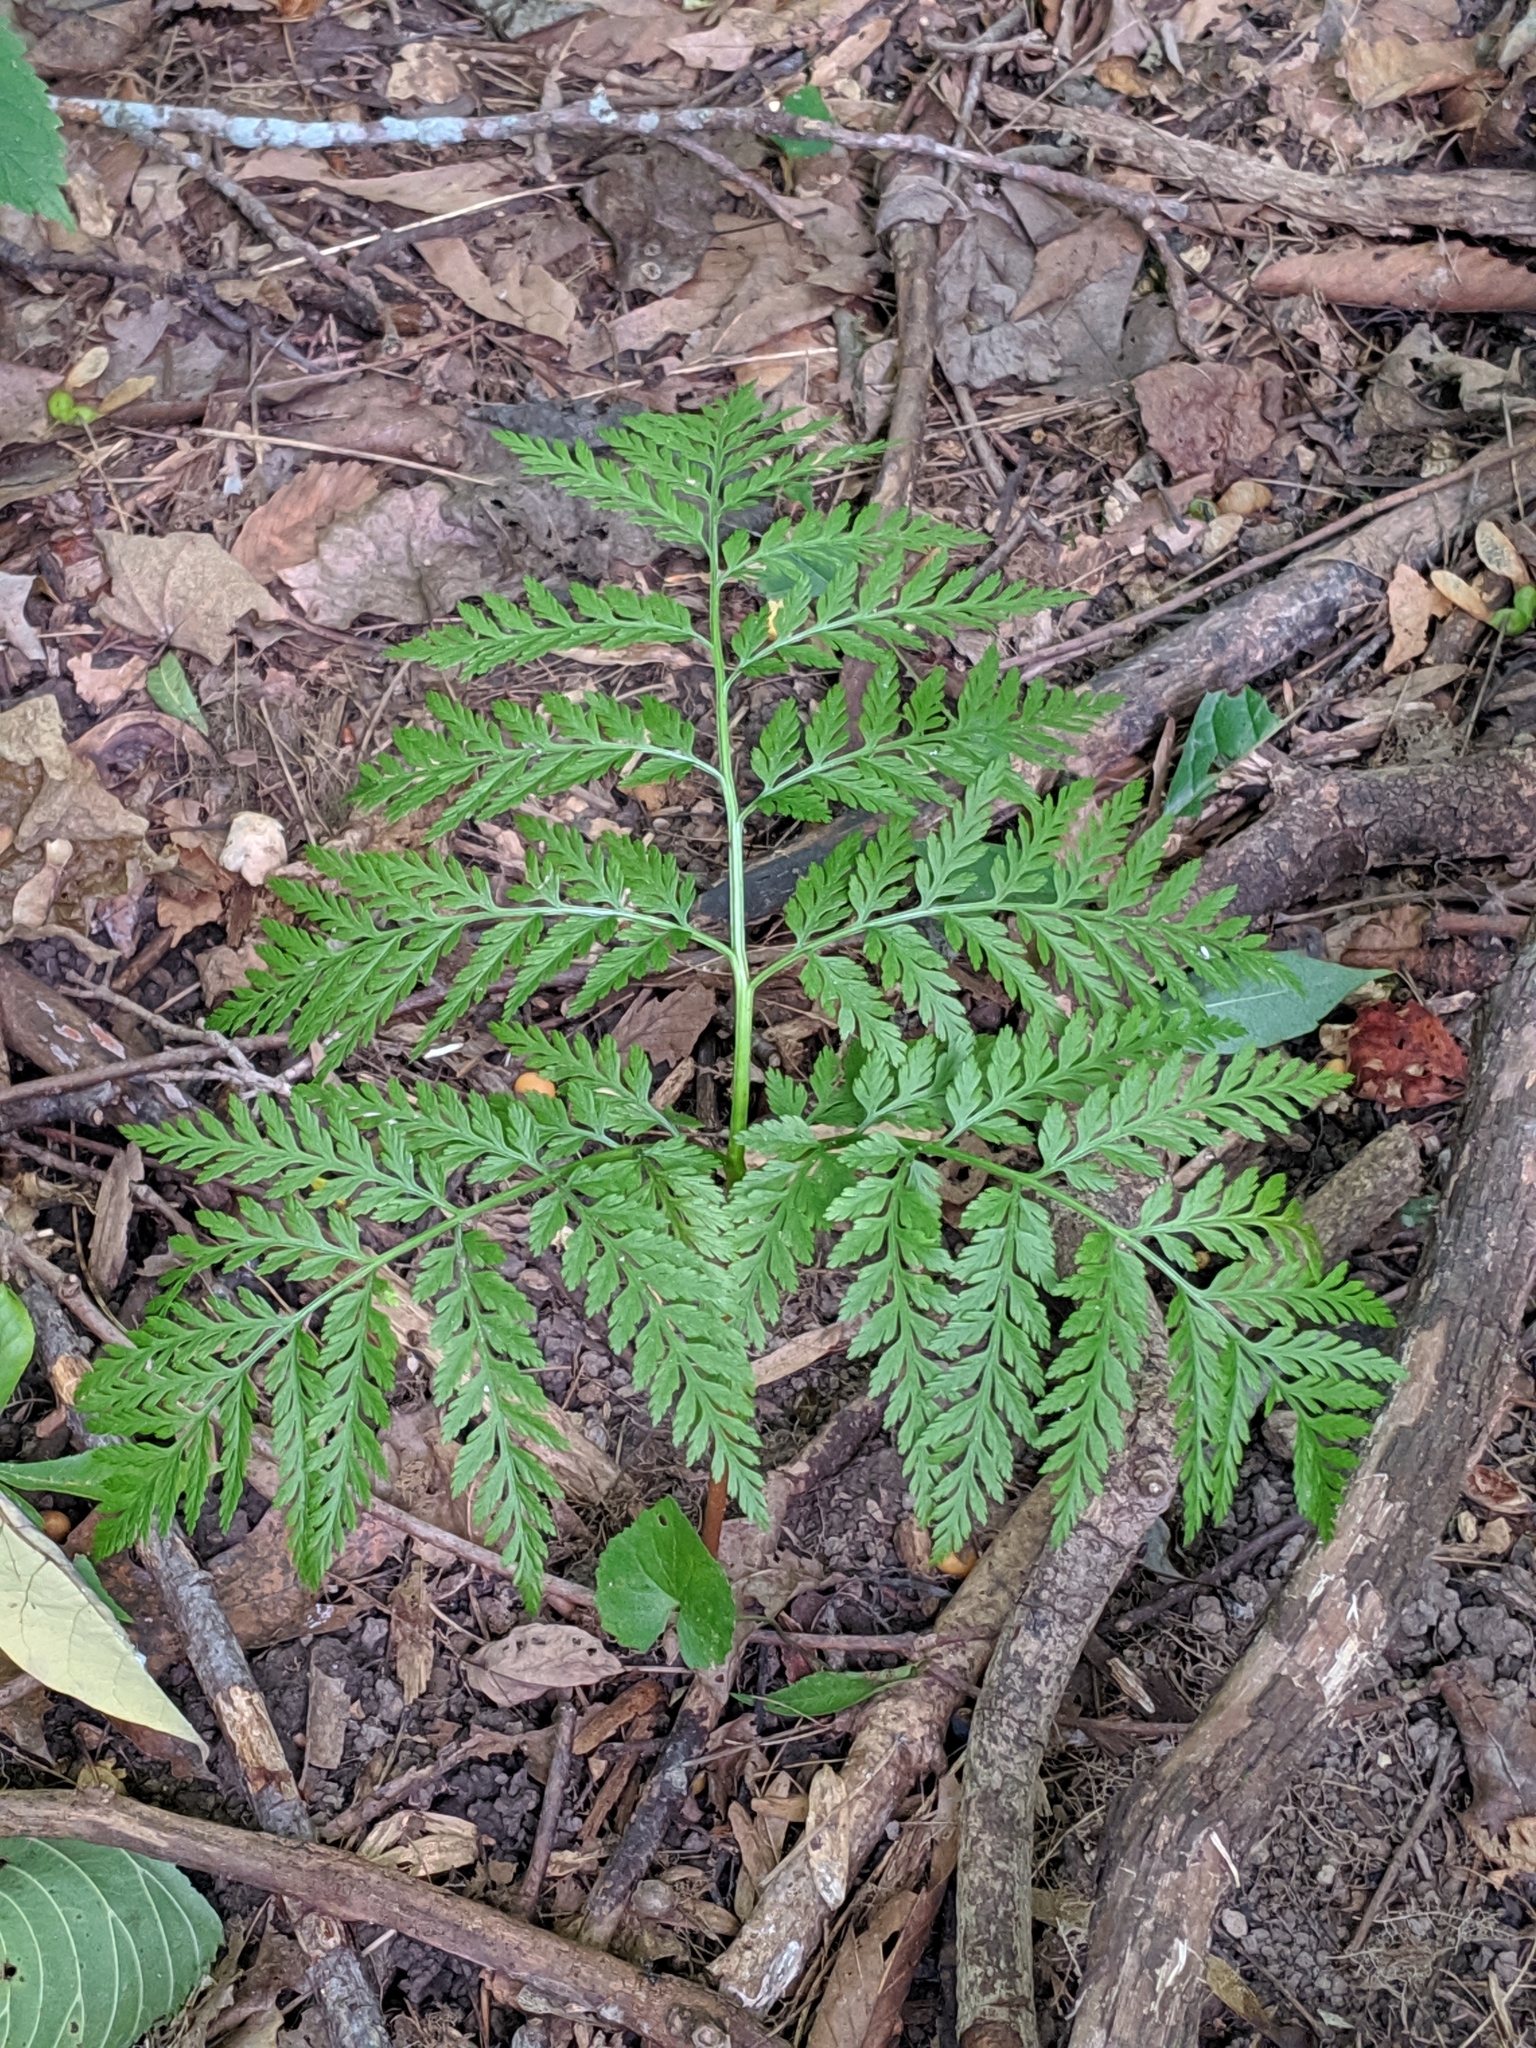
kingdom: Plantae
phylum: Tracheophyta
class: Polypodiopsida
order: Ophioglossales
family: Ophioglossaceae
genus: Botrypus
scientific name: Botrypus virginianus
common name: Common grapefern
